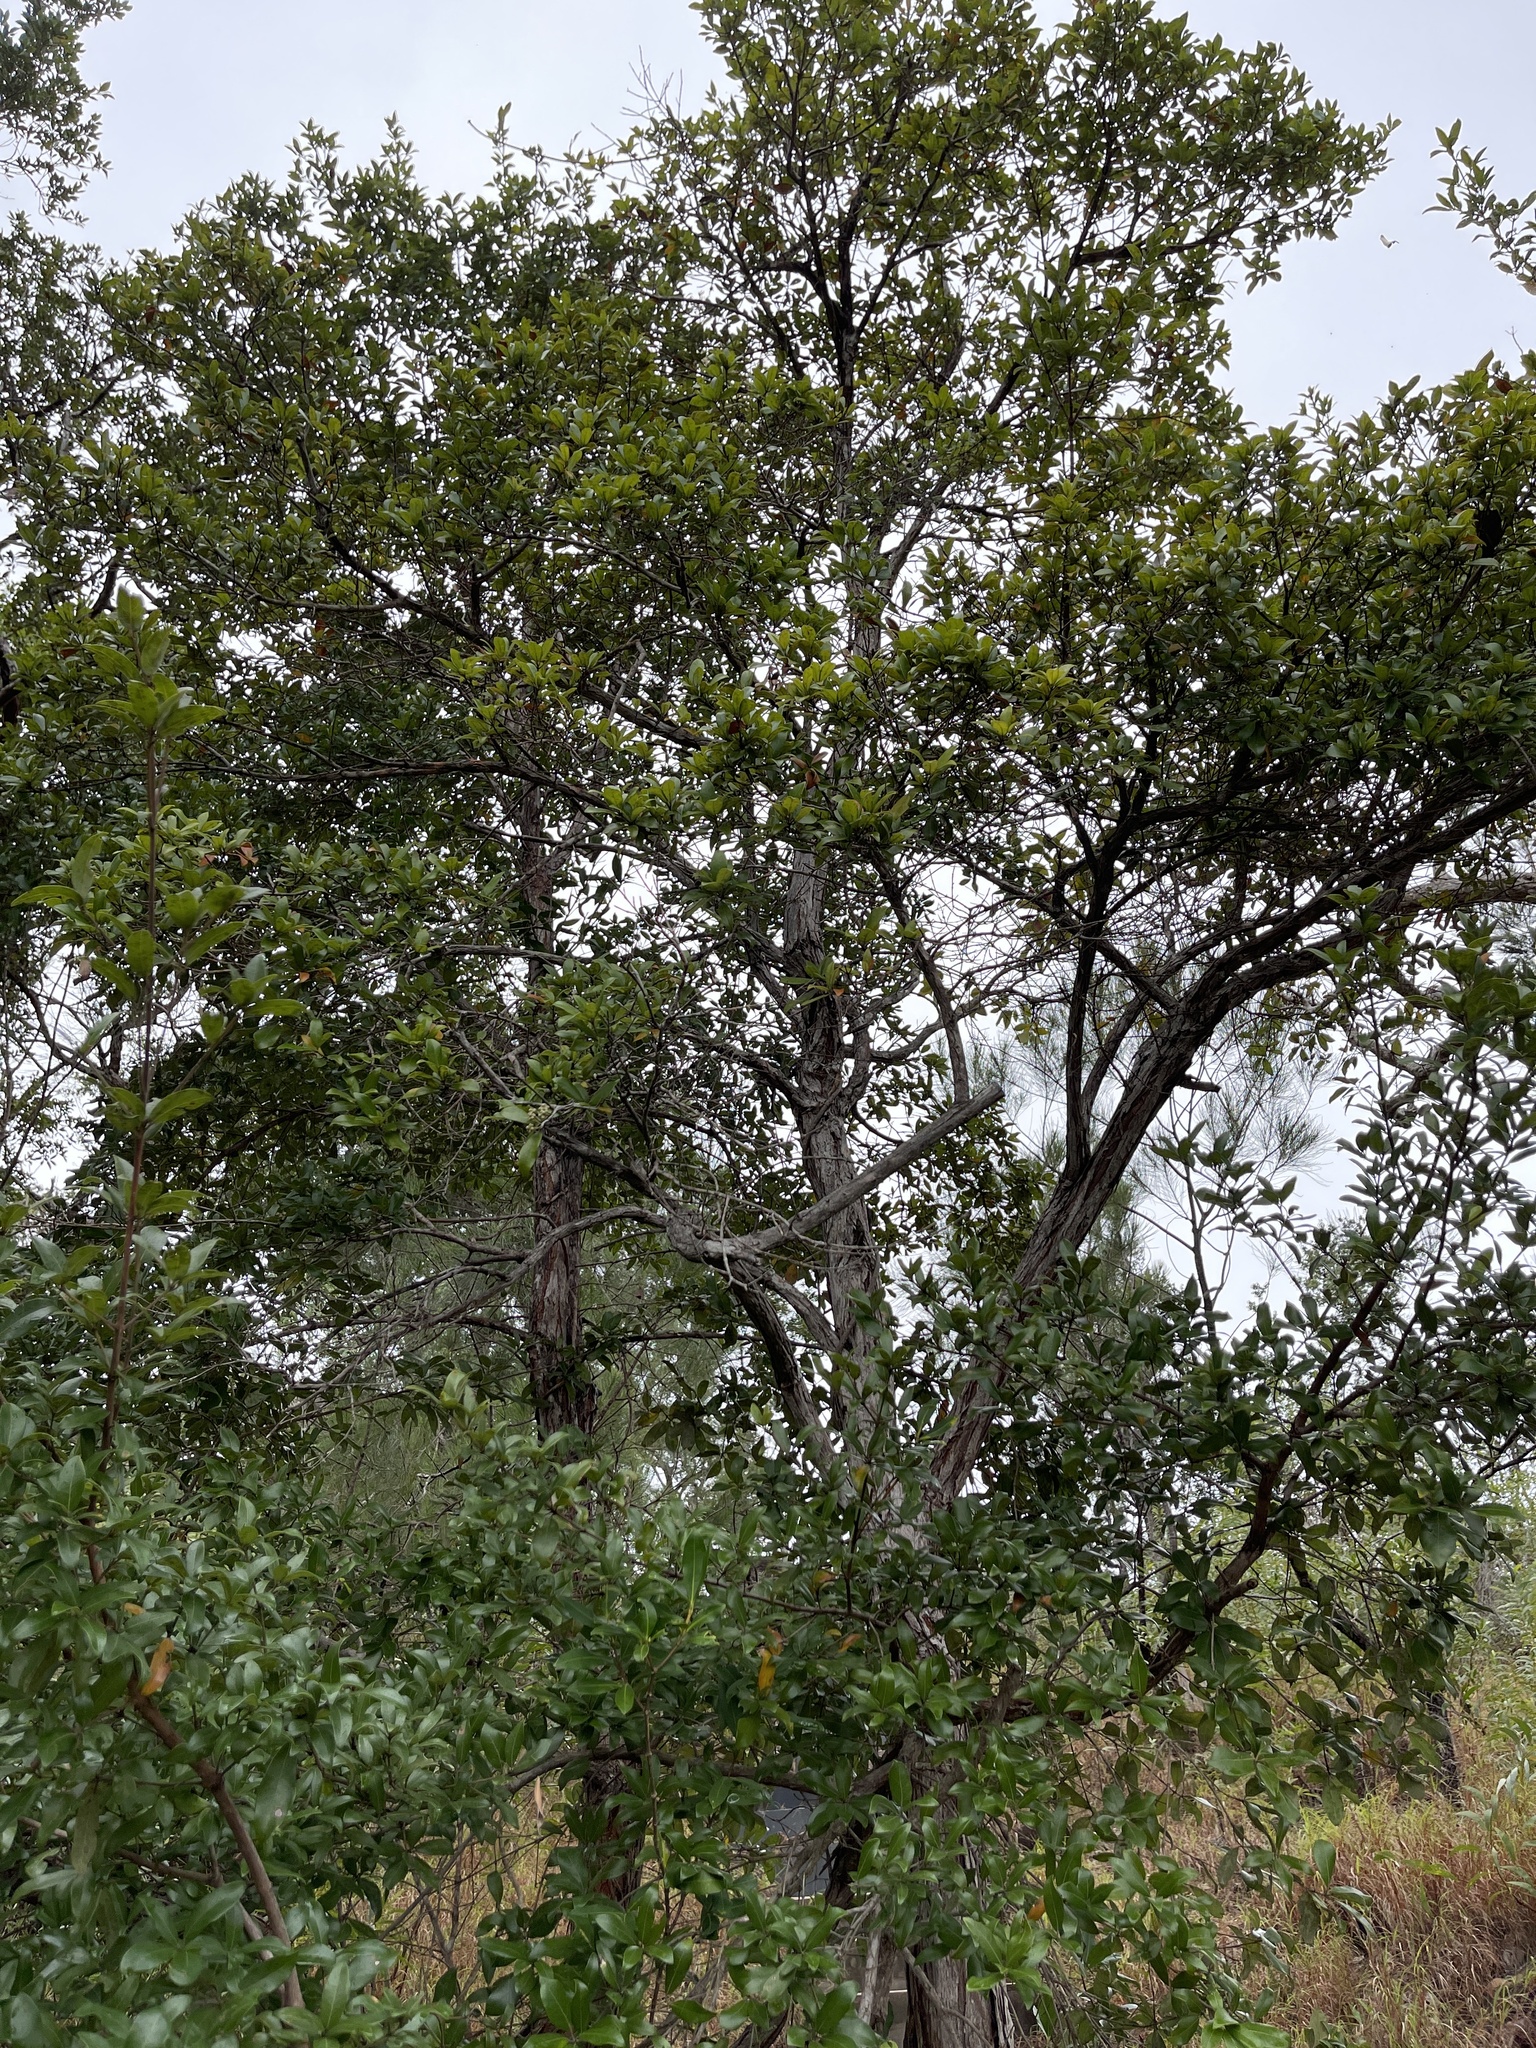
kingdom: Plantae
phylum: Tracheophyta
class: Magnoliopsida
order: Myrtales
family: Myrtaceae
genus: Syncarpia
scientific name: Syncarpia glomulifera
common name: Turpentine tree
